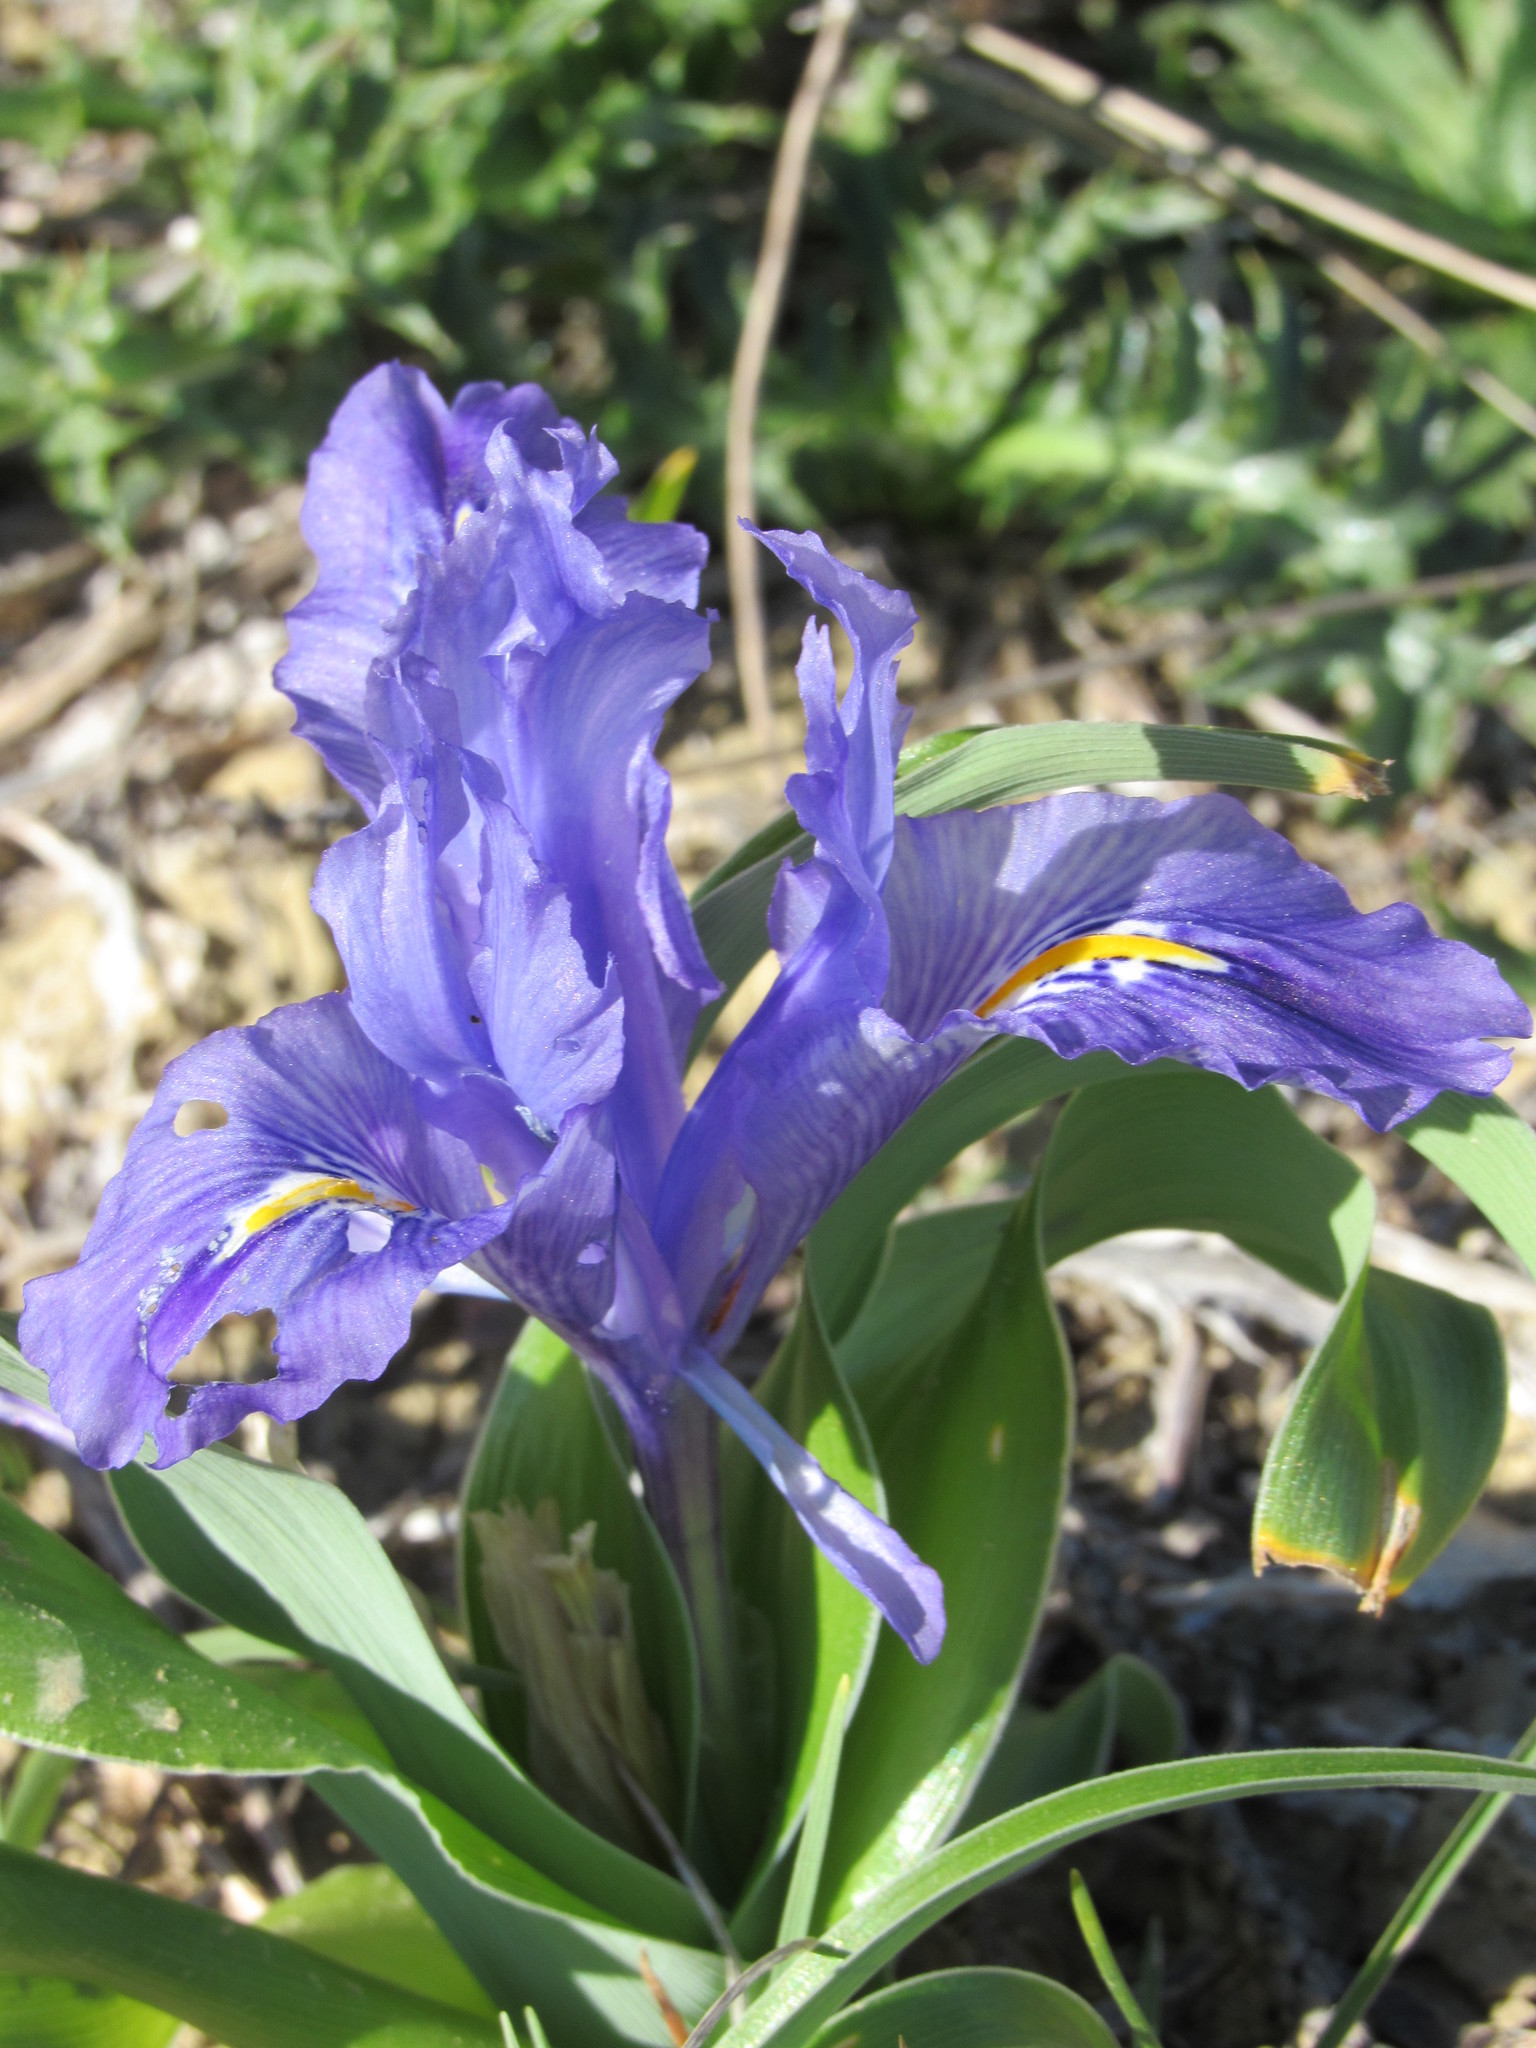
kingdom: Plantae
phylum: Tracheophyta
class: Liliopsida
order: Asparagales
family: Iridaceae
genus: Iris
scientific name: Iris planifolia
